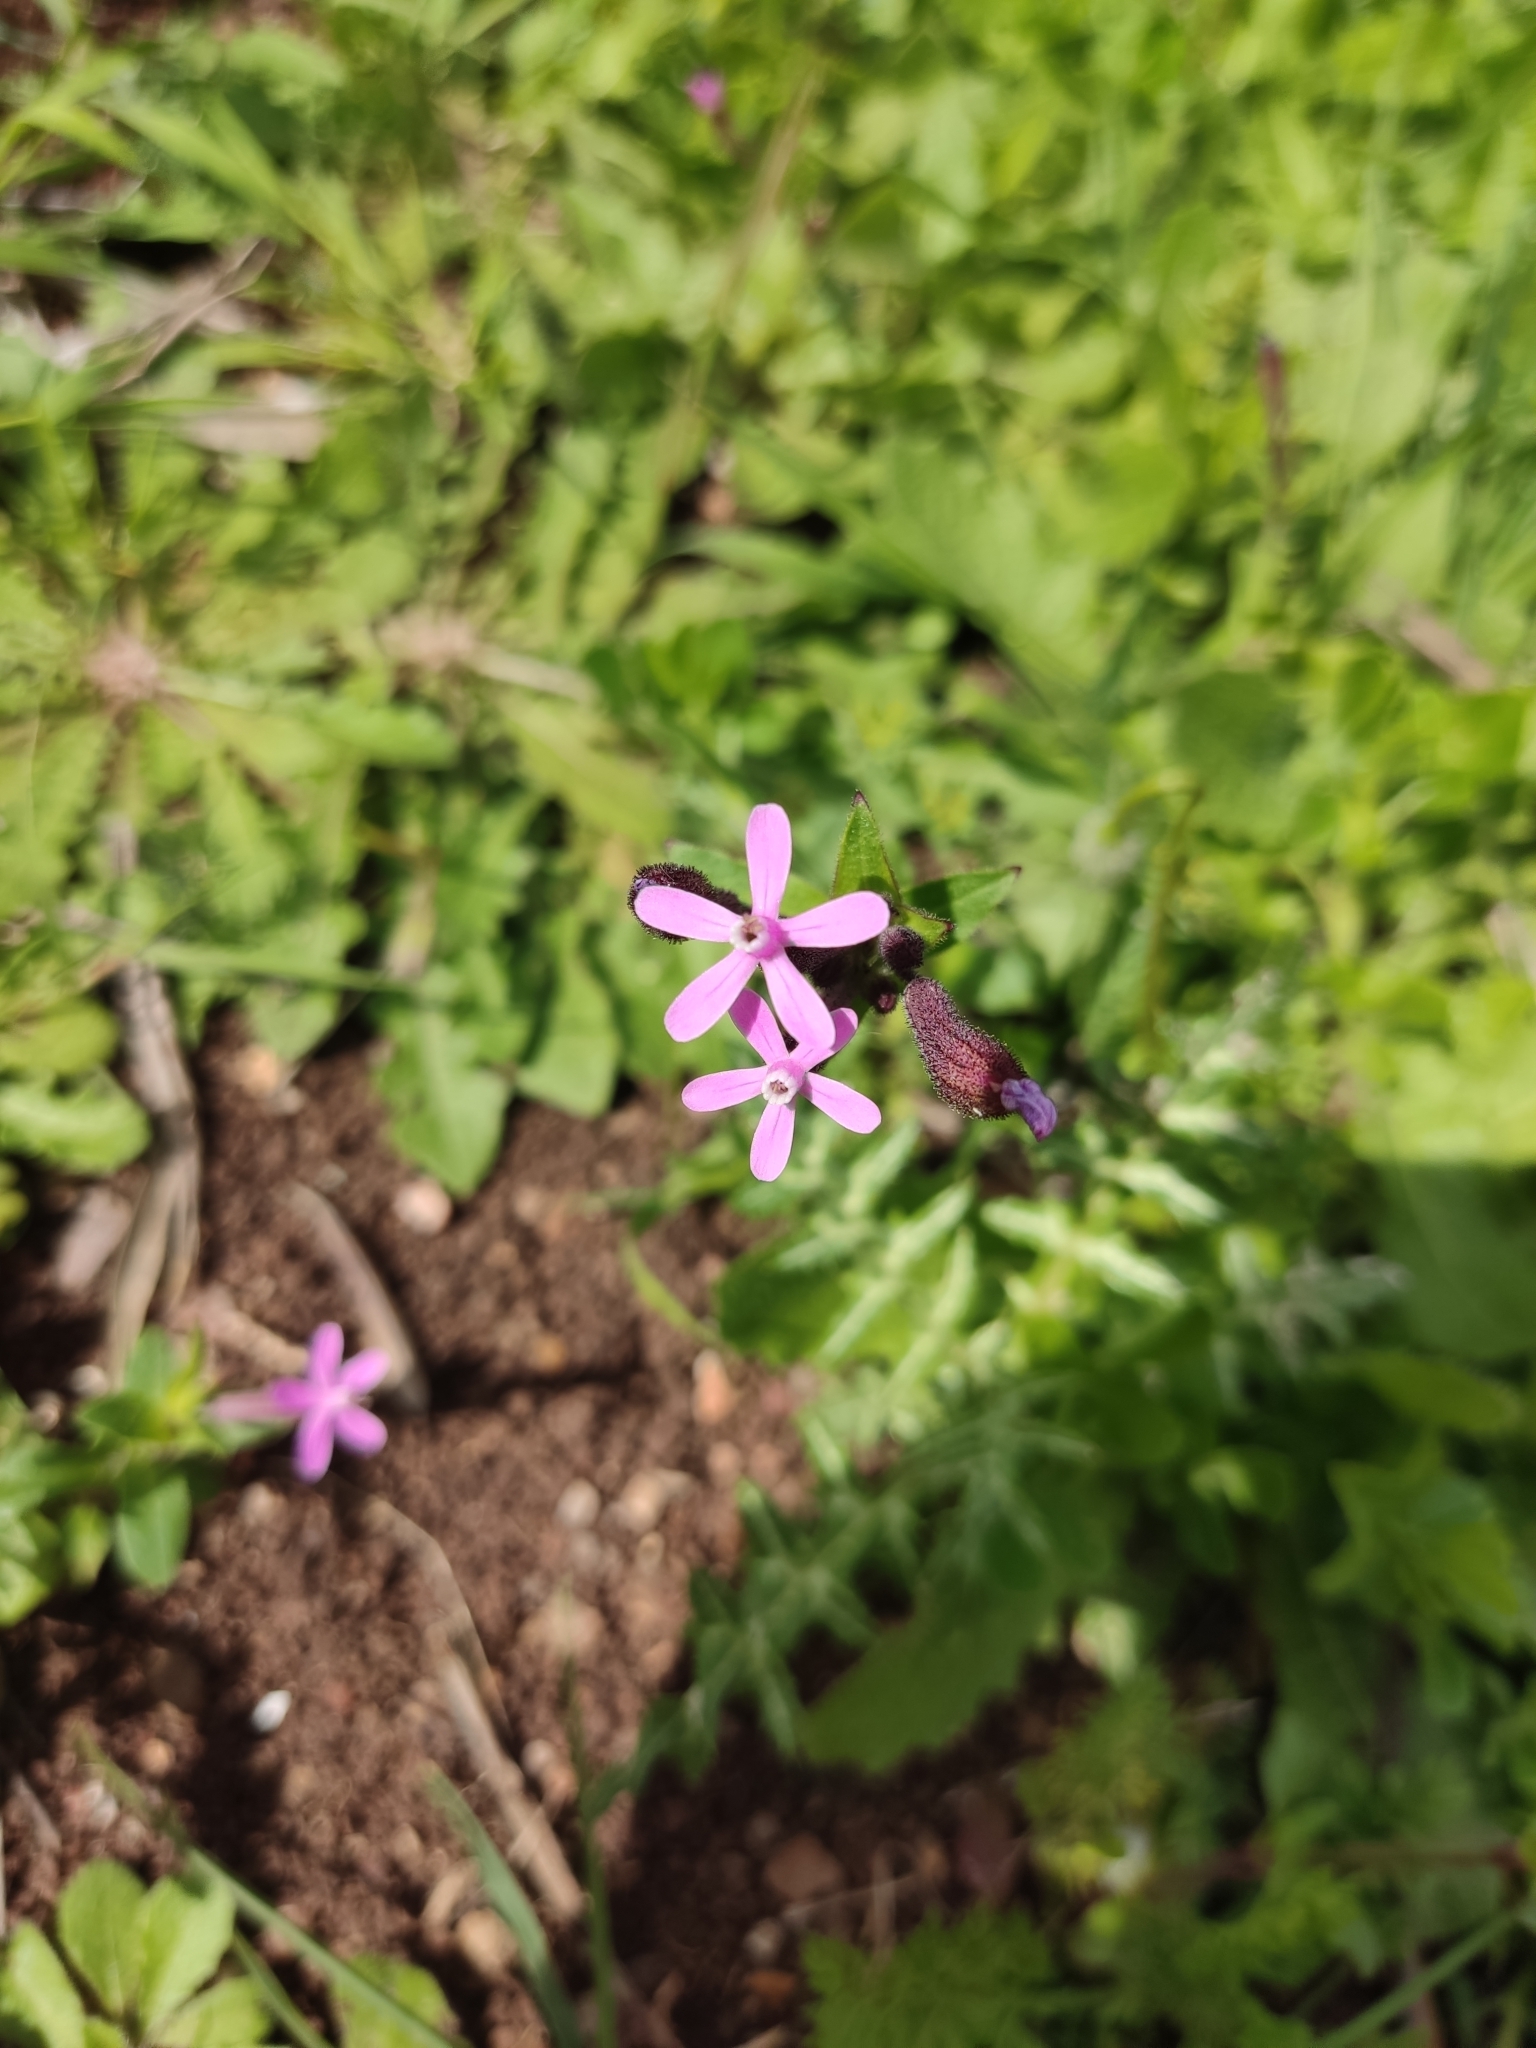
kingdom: Plantae
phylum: Tracheophyta
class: Magnoliopsida
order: Caryophyllales
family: Caryophyllaceae
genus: Silene
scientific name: Silene fuscata
